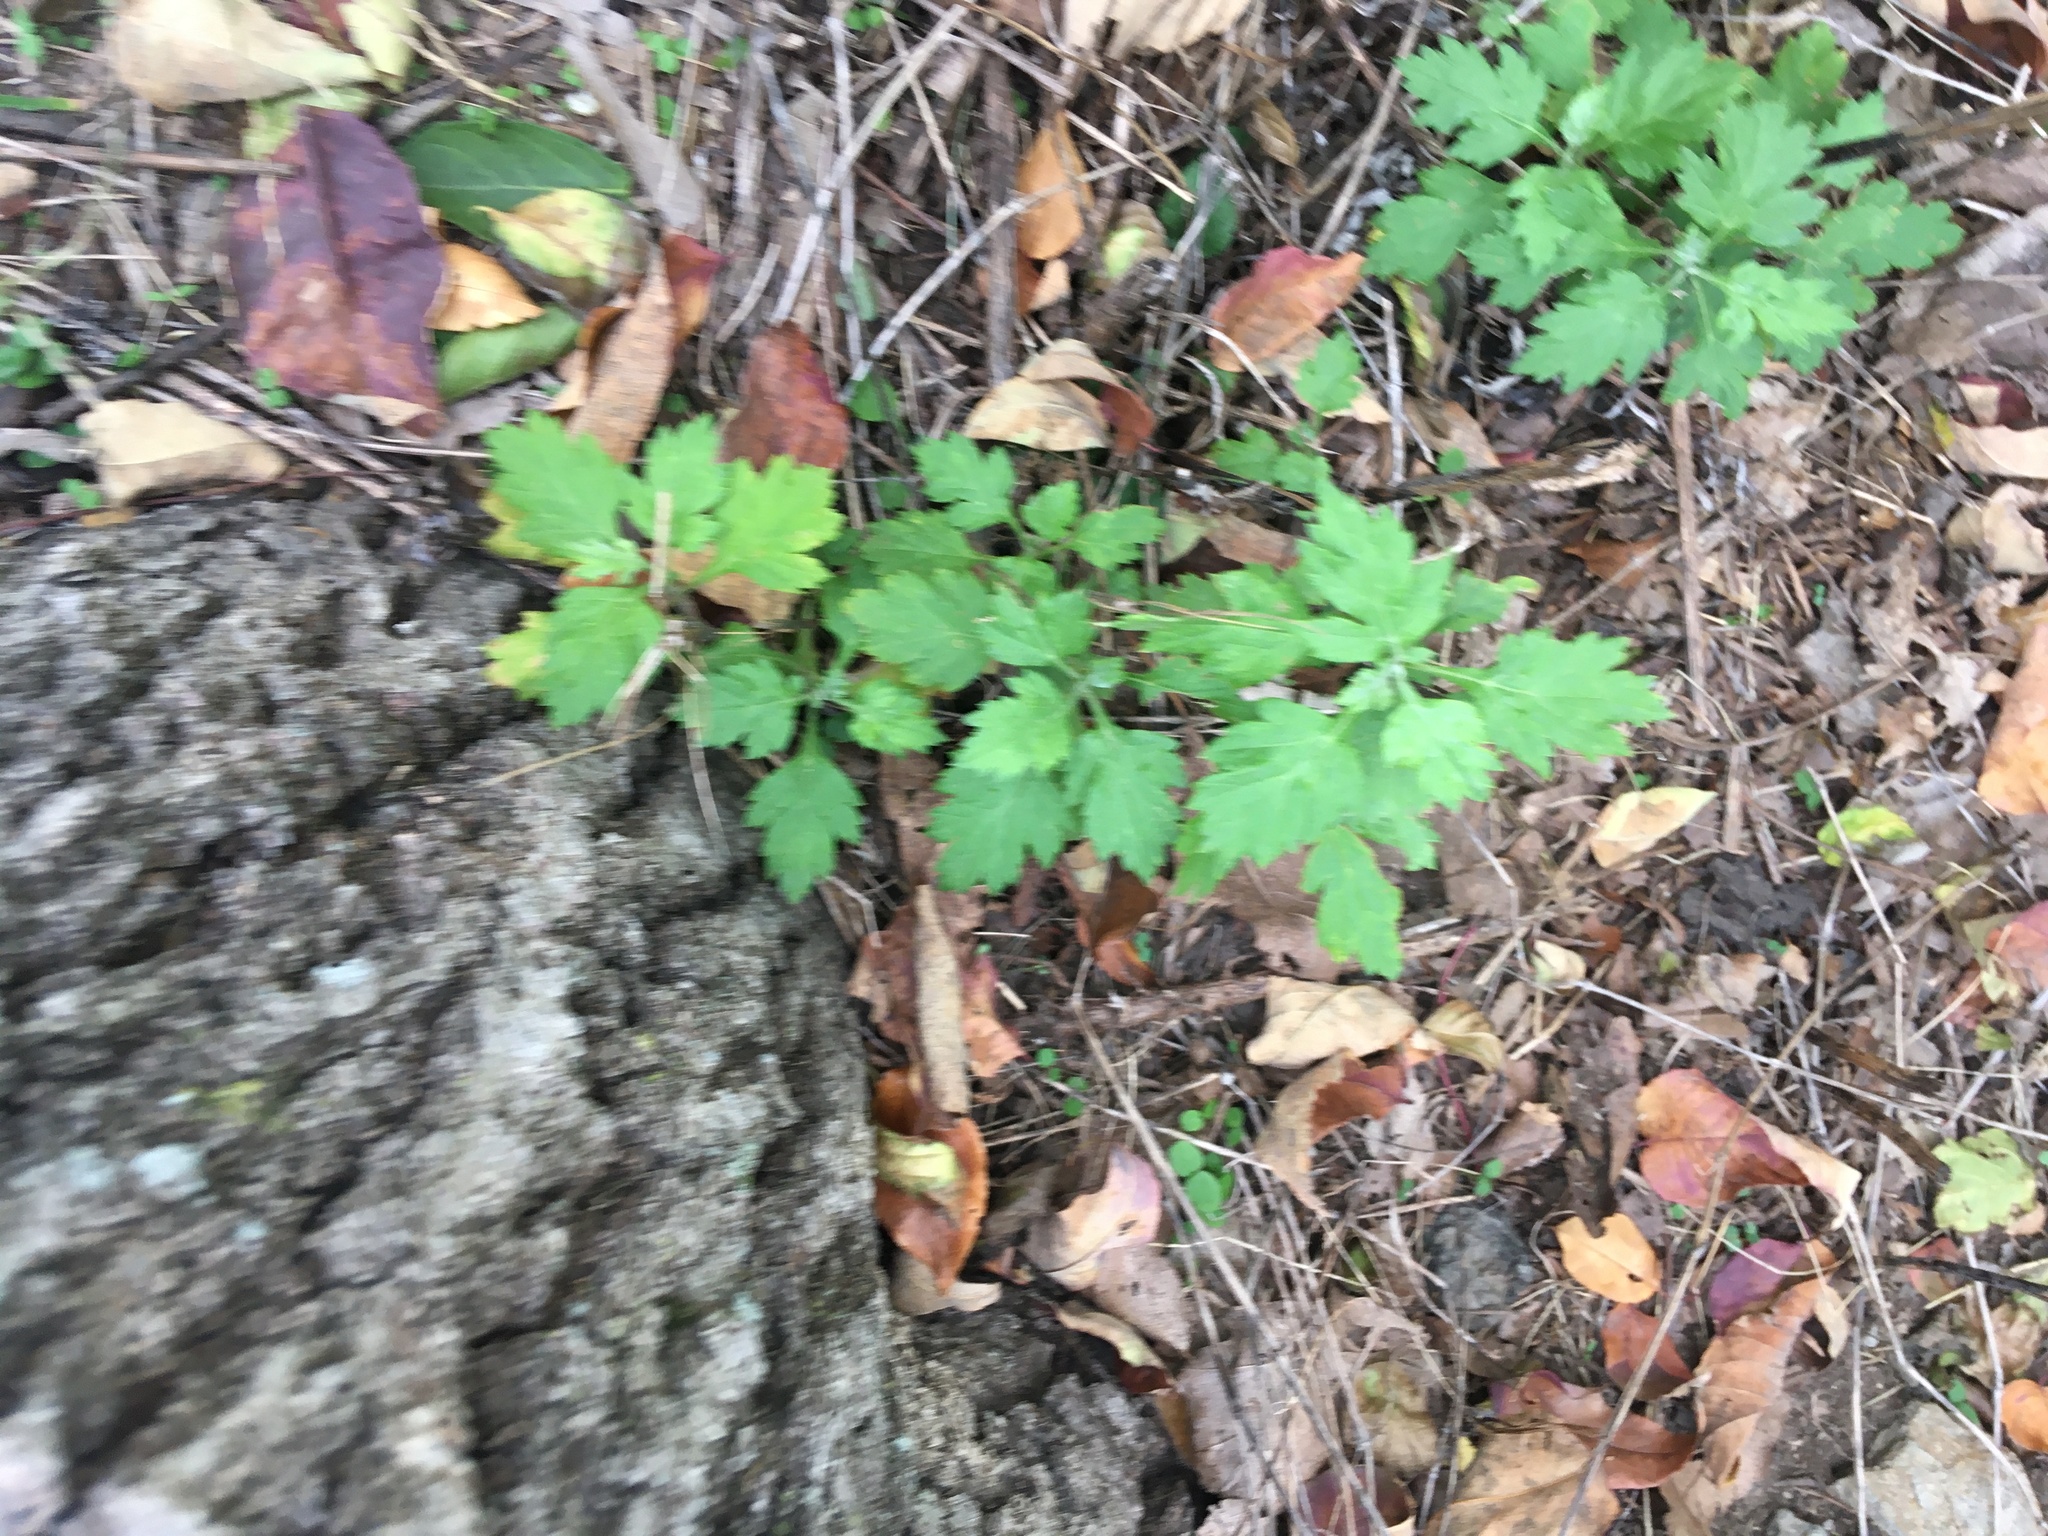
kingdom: Plantae
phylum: Tracheophyta
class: Magnoliopsida
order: Asterales
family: Asteraceae
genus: Artemisia
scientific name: Artemisia vulgaris
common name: Mugwort
